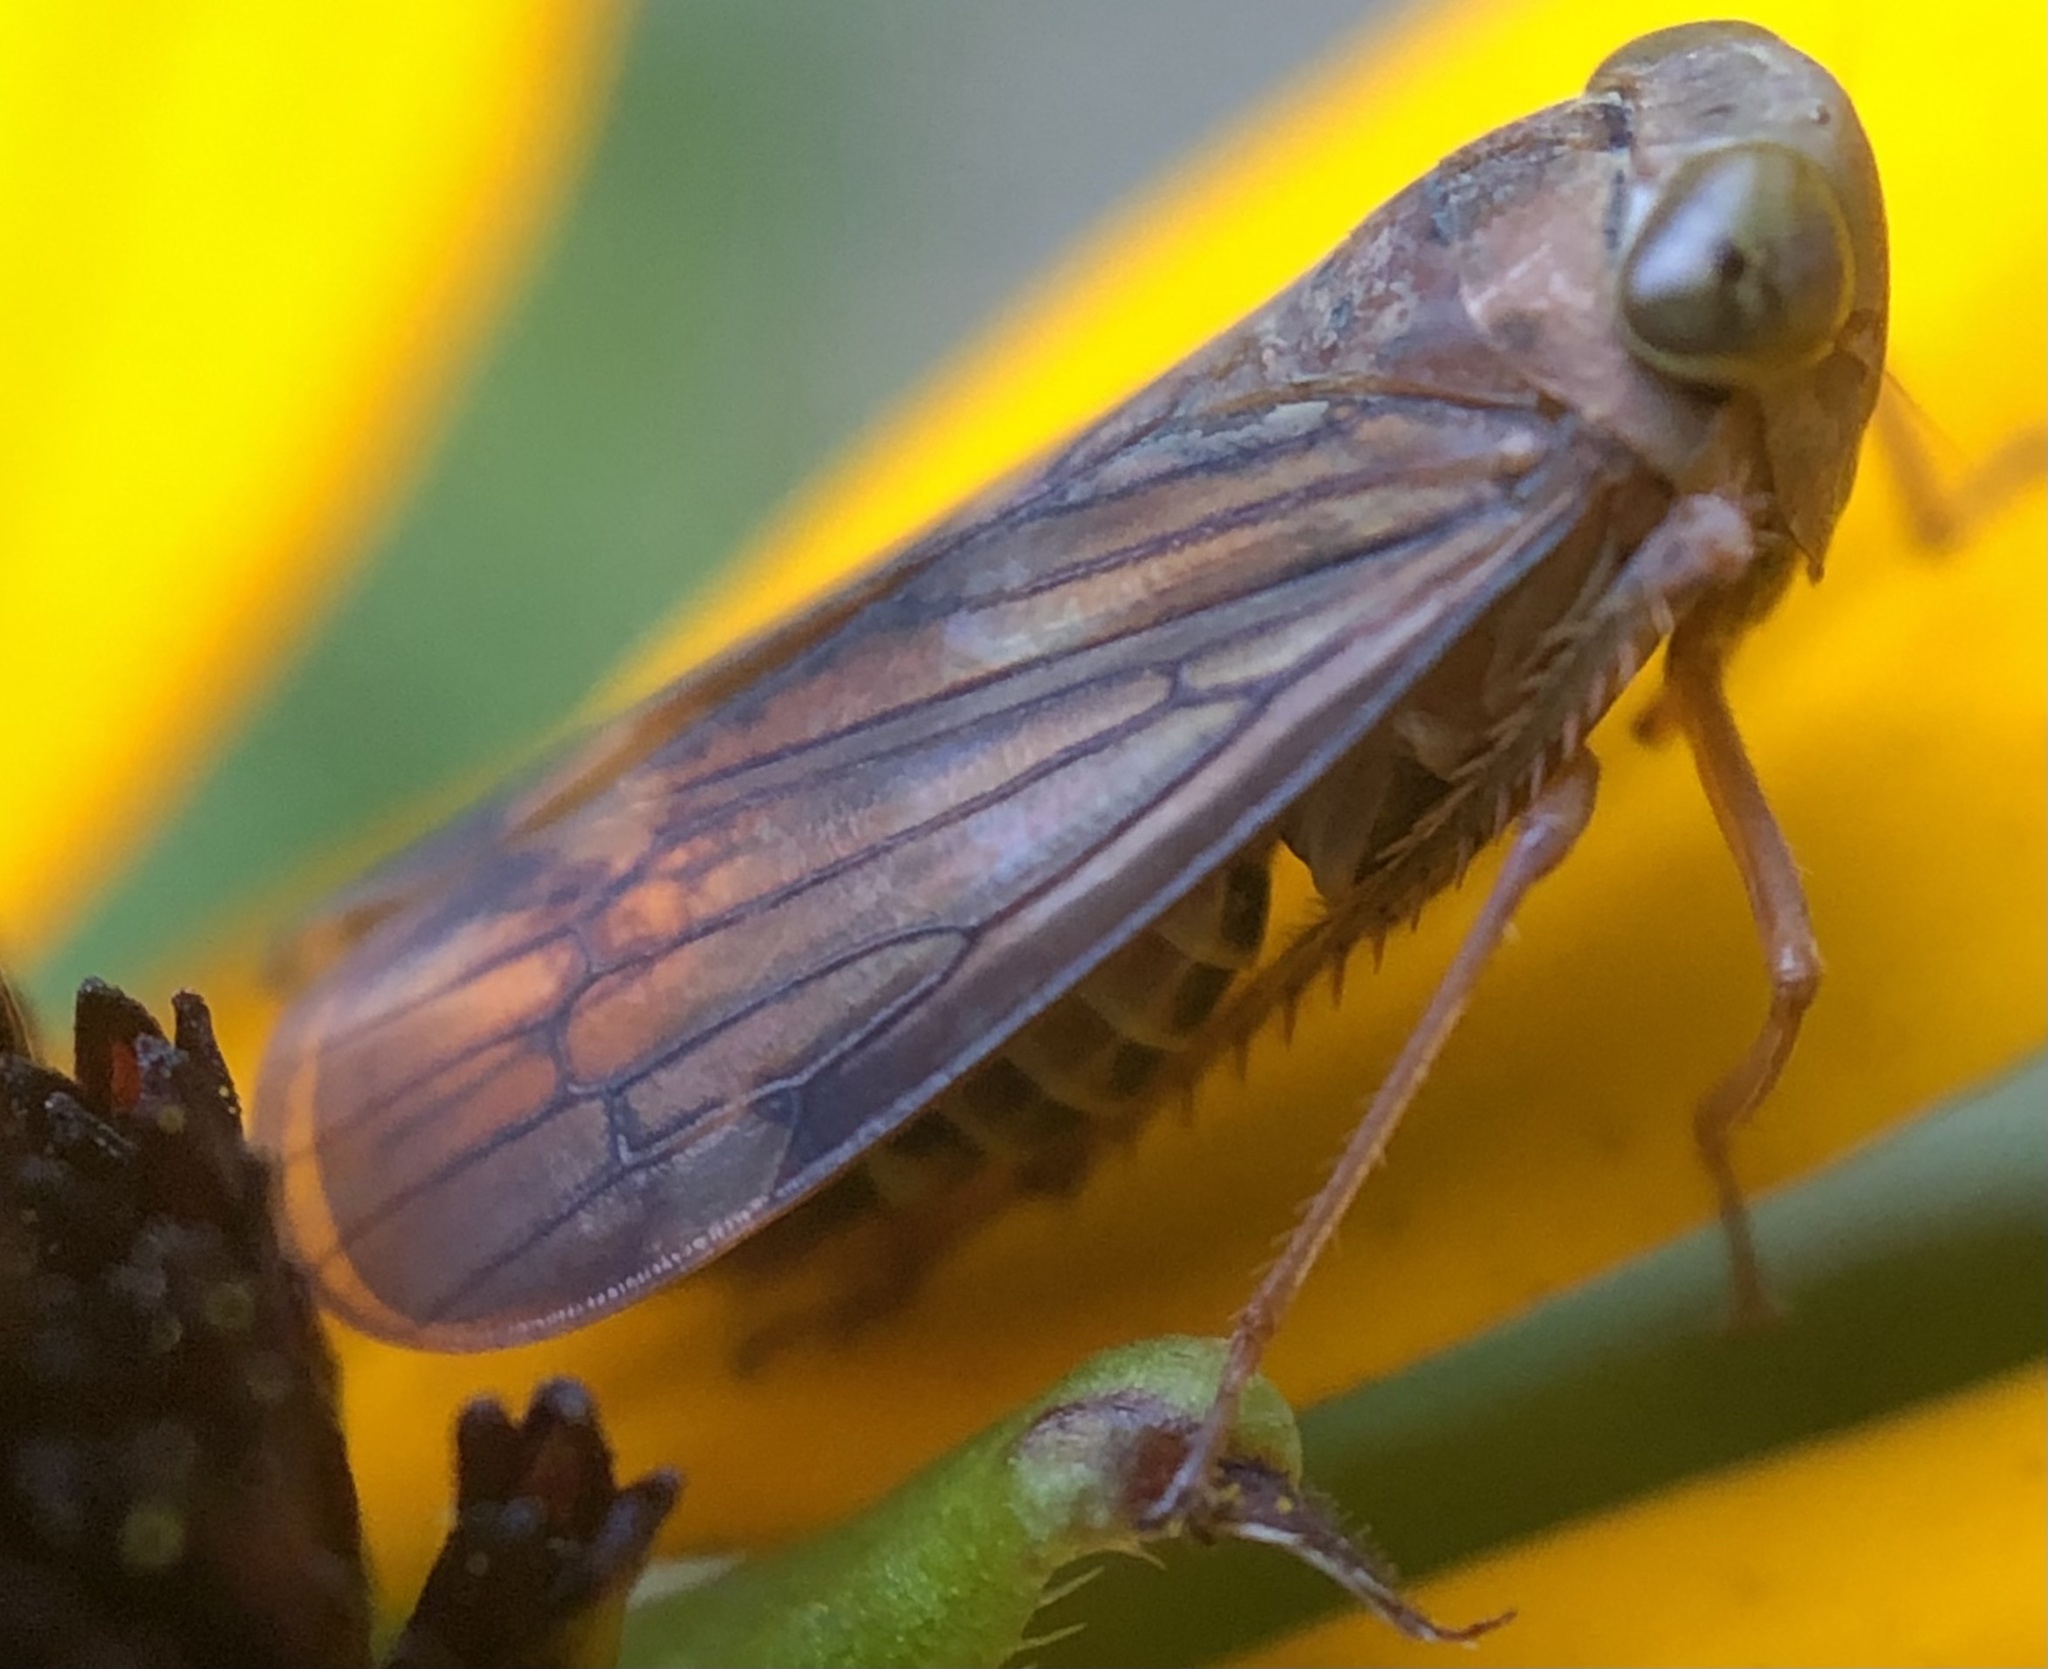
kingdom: Animalia
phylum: Arthropoda
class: Insecta
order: Hemiptera
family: Cicadellidae
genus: Jikradia
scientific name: Jikradia olitoria
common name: Coppery leafhopper
